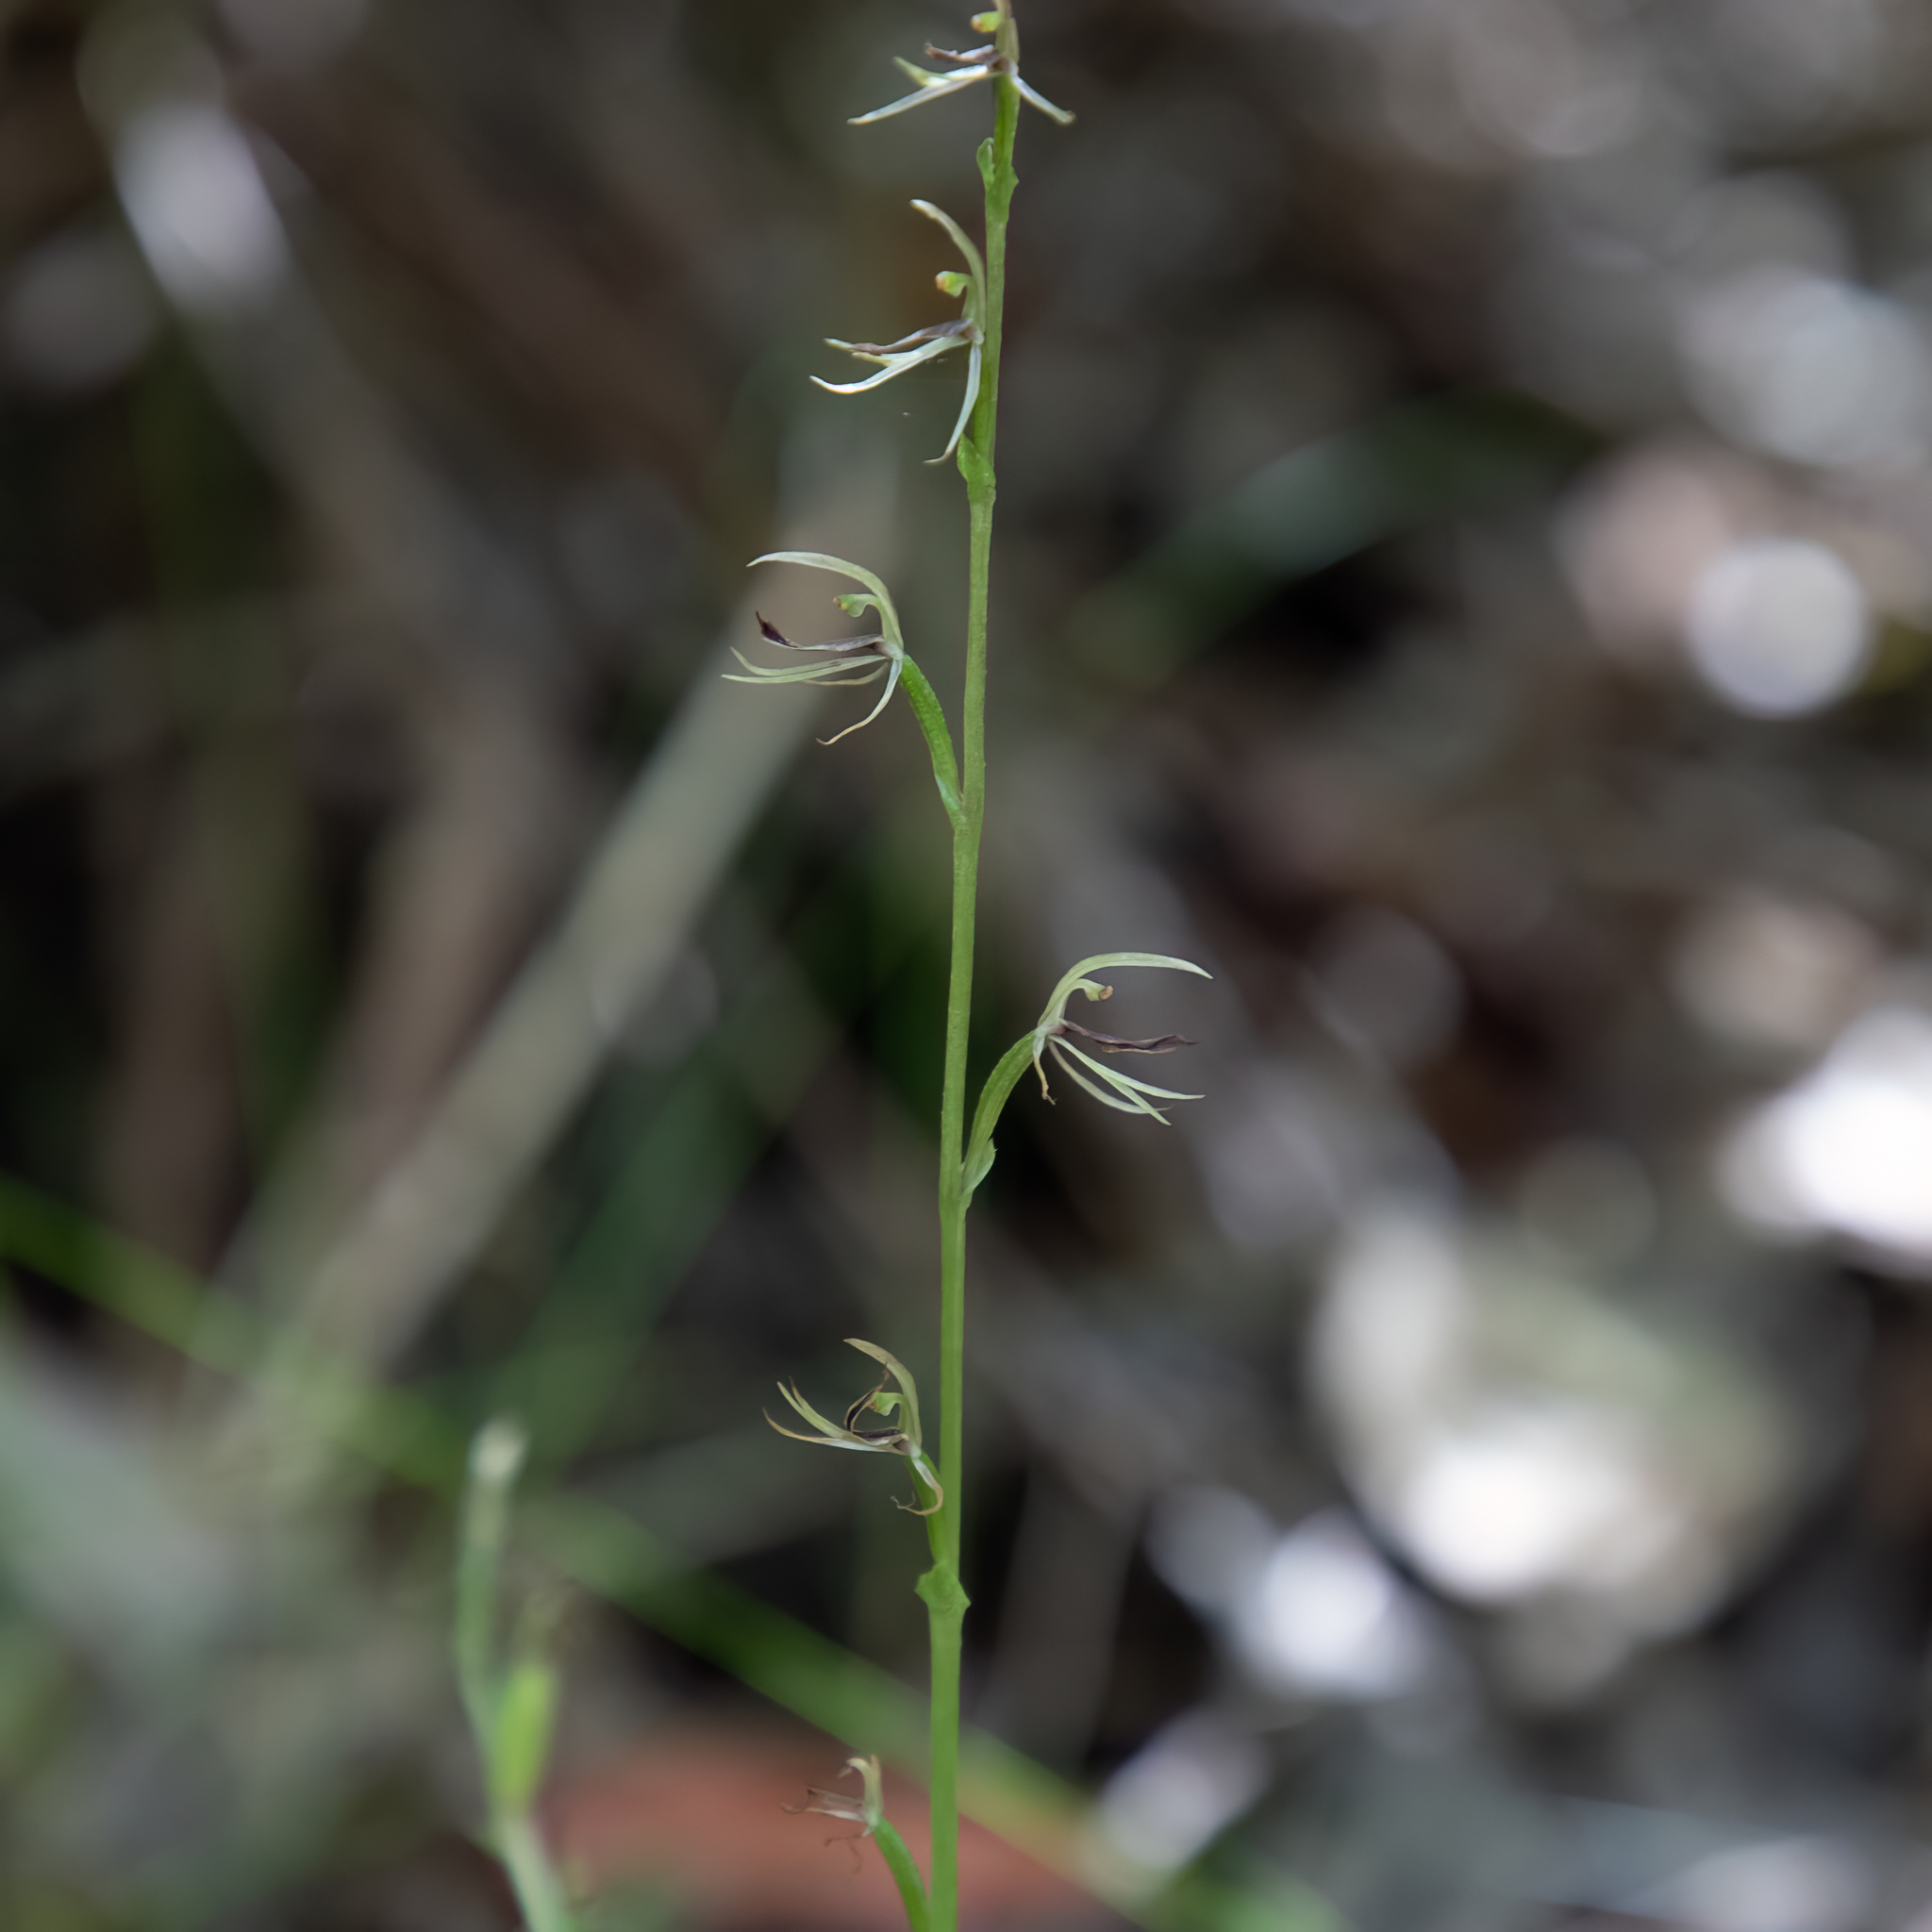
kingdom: Plantae
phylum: Tracheophyta
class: Liliopsida
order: Asparagales
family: Orchidaceae
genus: Cyrtostylis
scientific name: Cyrtostylis huegelii
